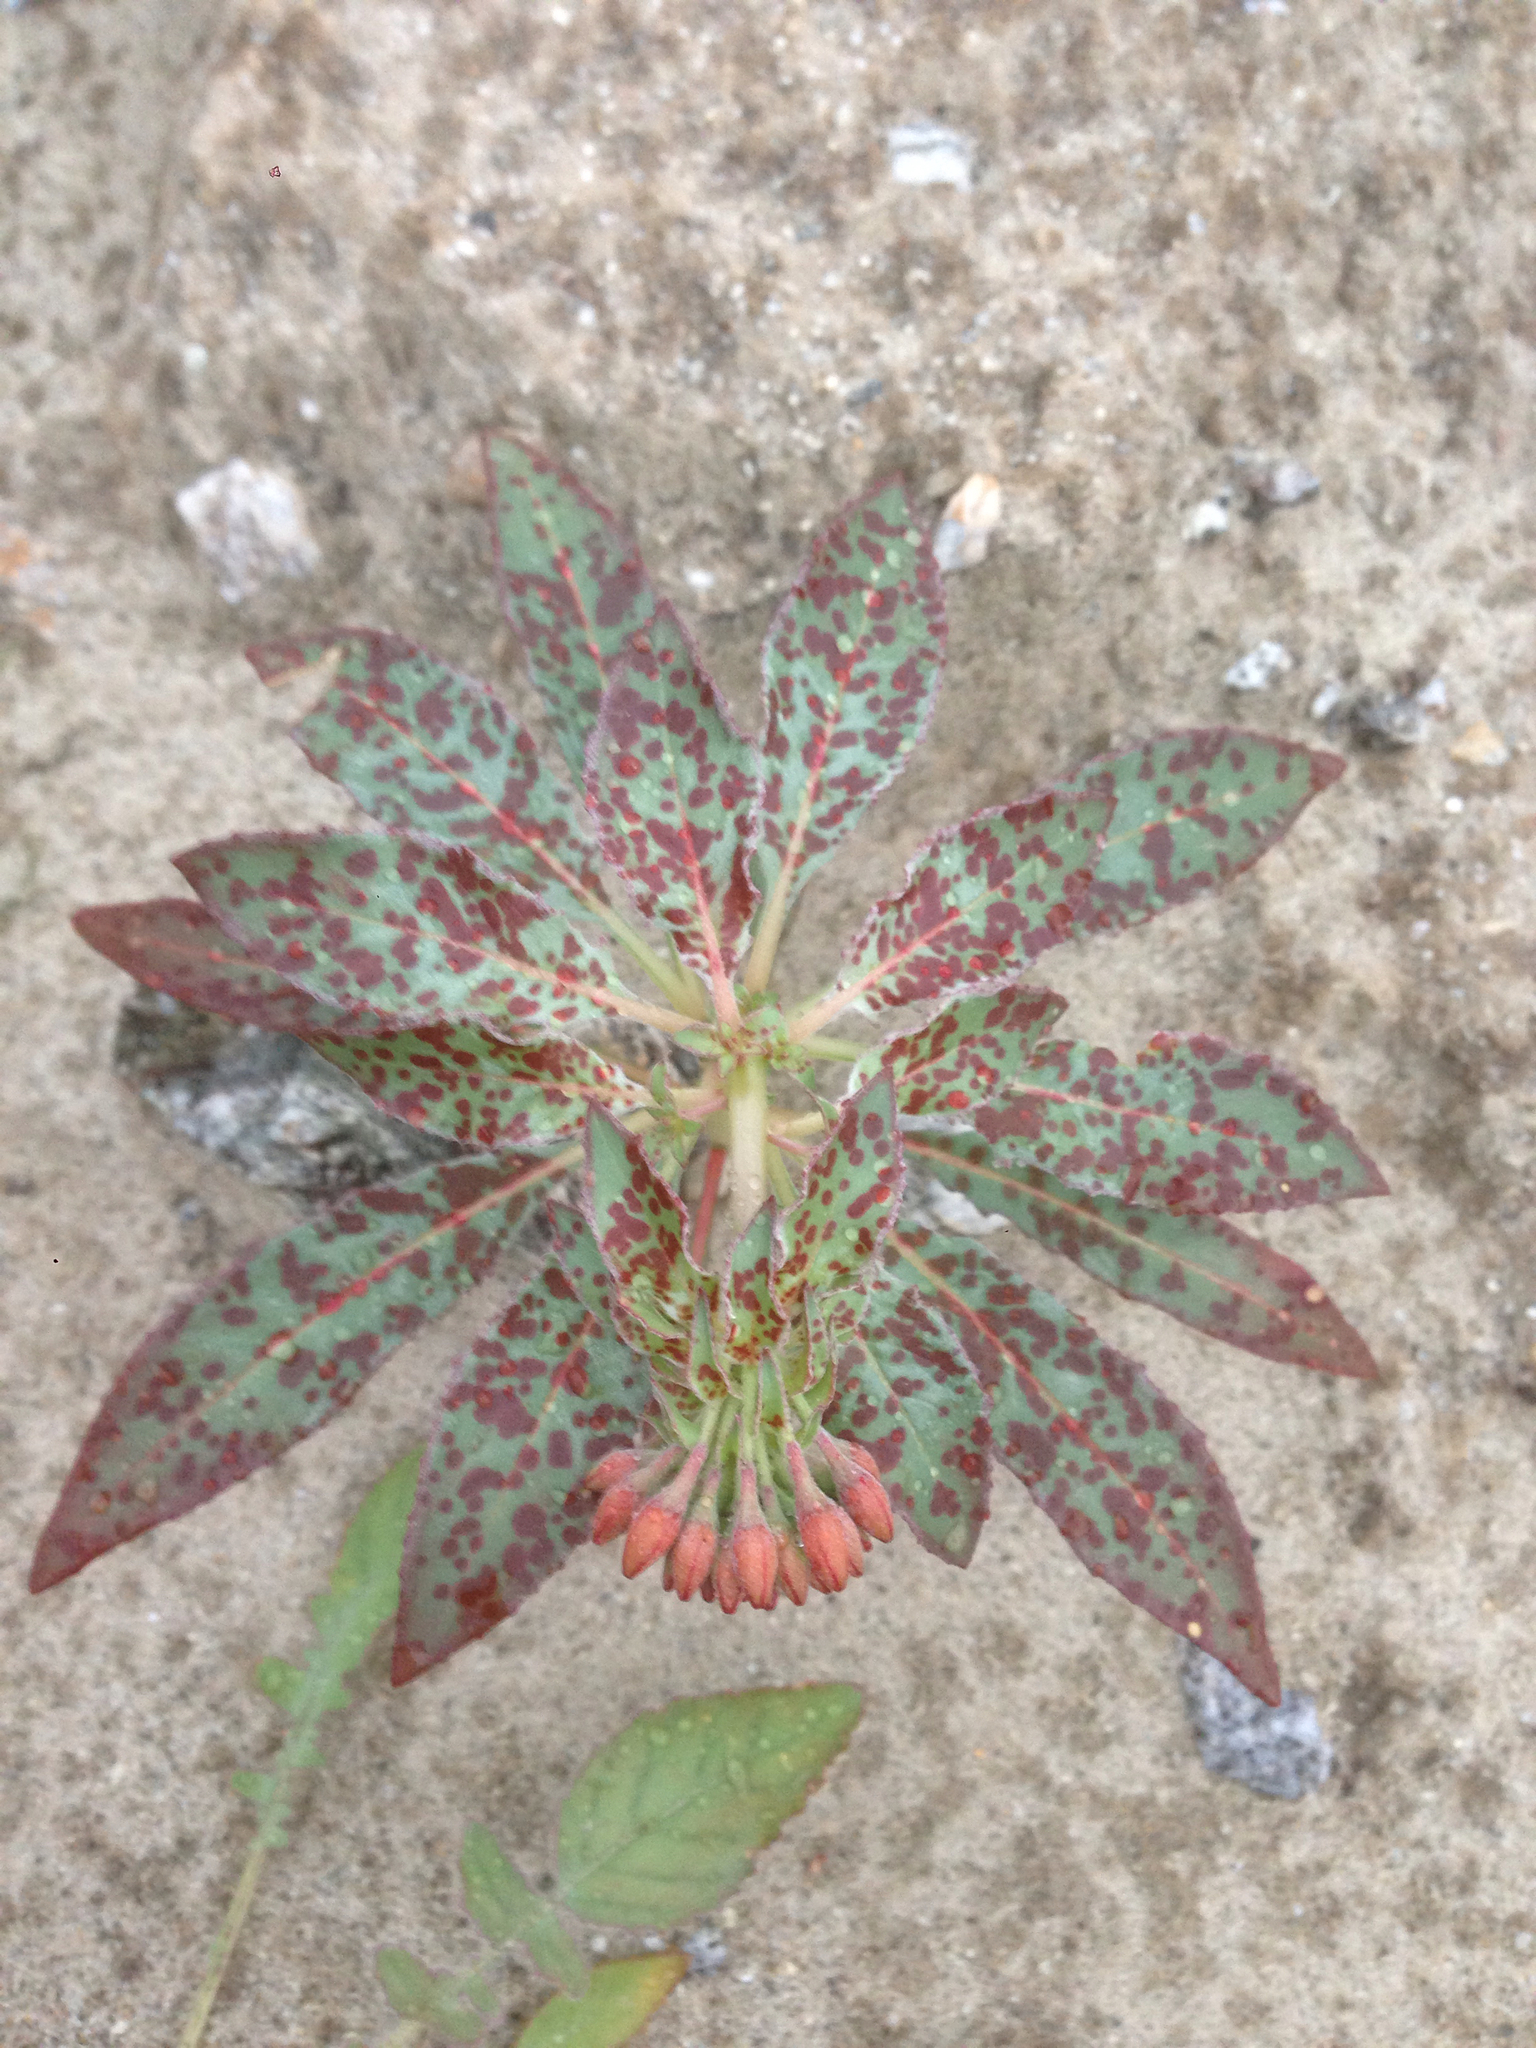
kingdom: Plantae
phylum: Tracheophyta
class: Magnoliopsida
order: Myrtales
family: Onagraceae
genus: Eremothera
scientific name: Eremothera boothii
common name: Booth's evening primrose
